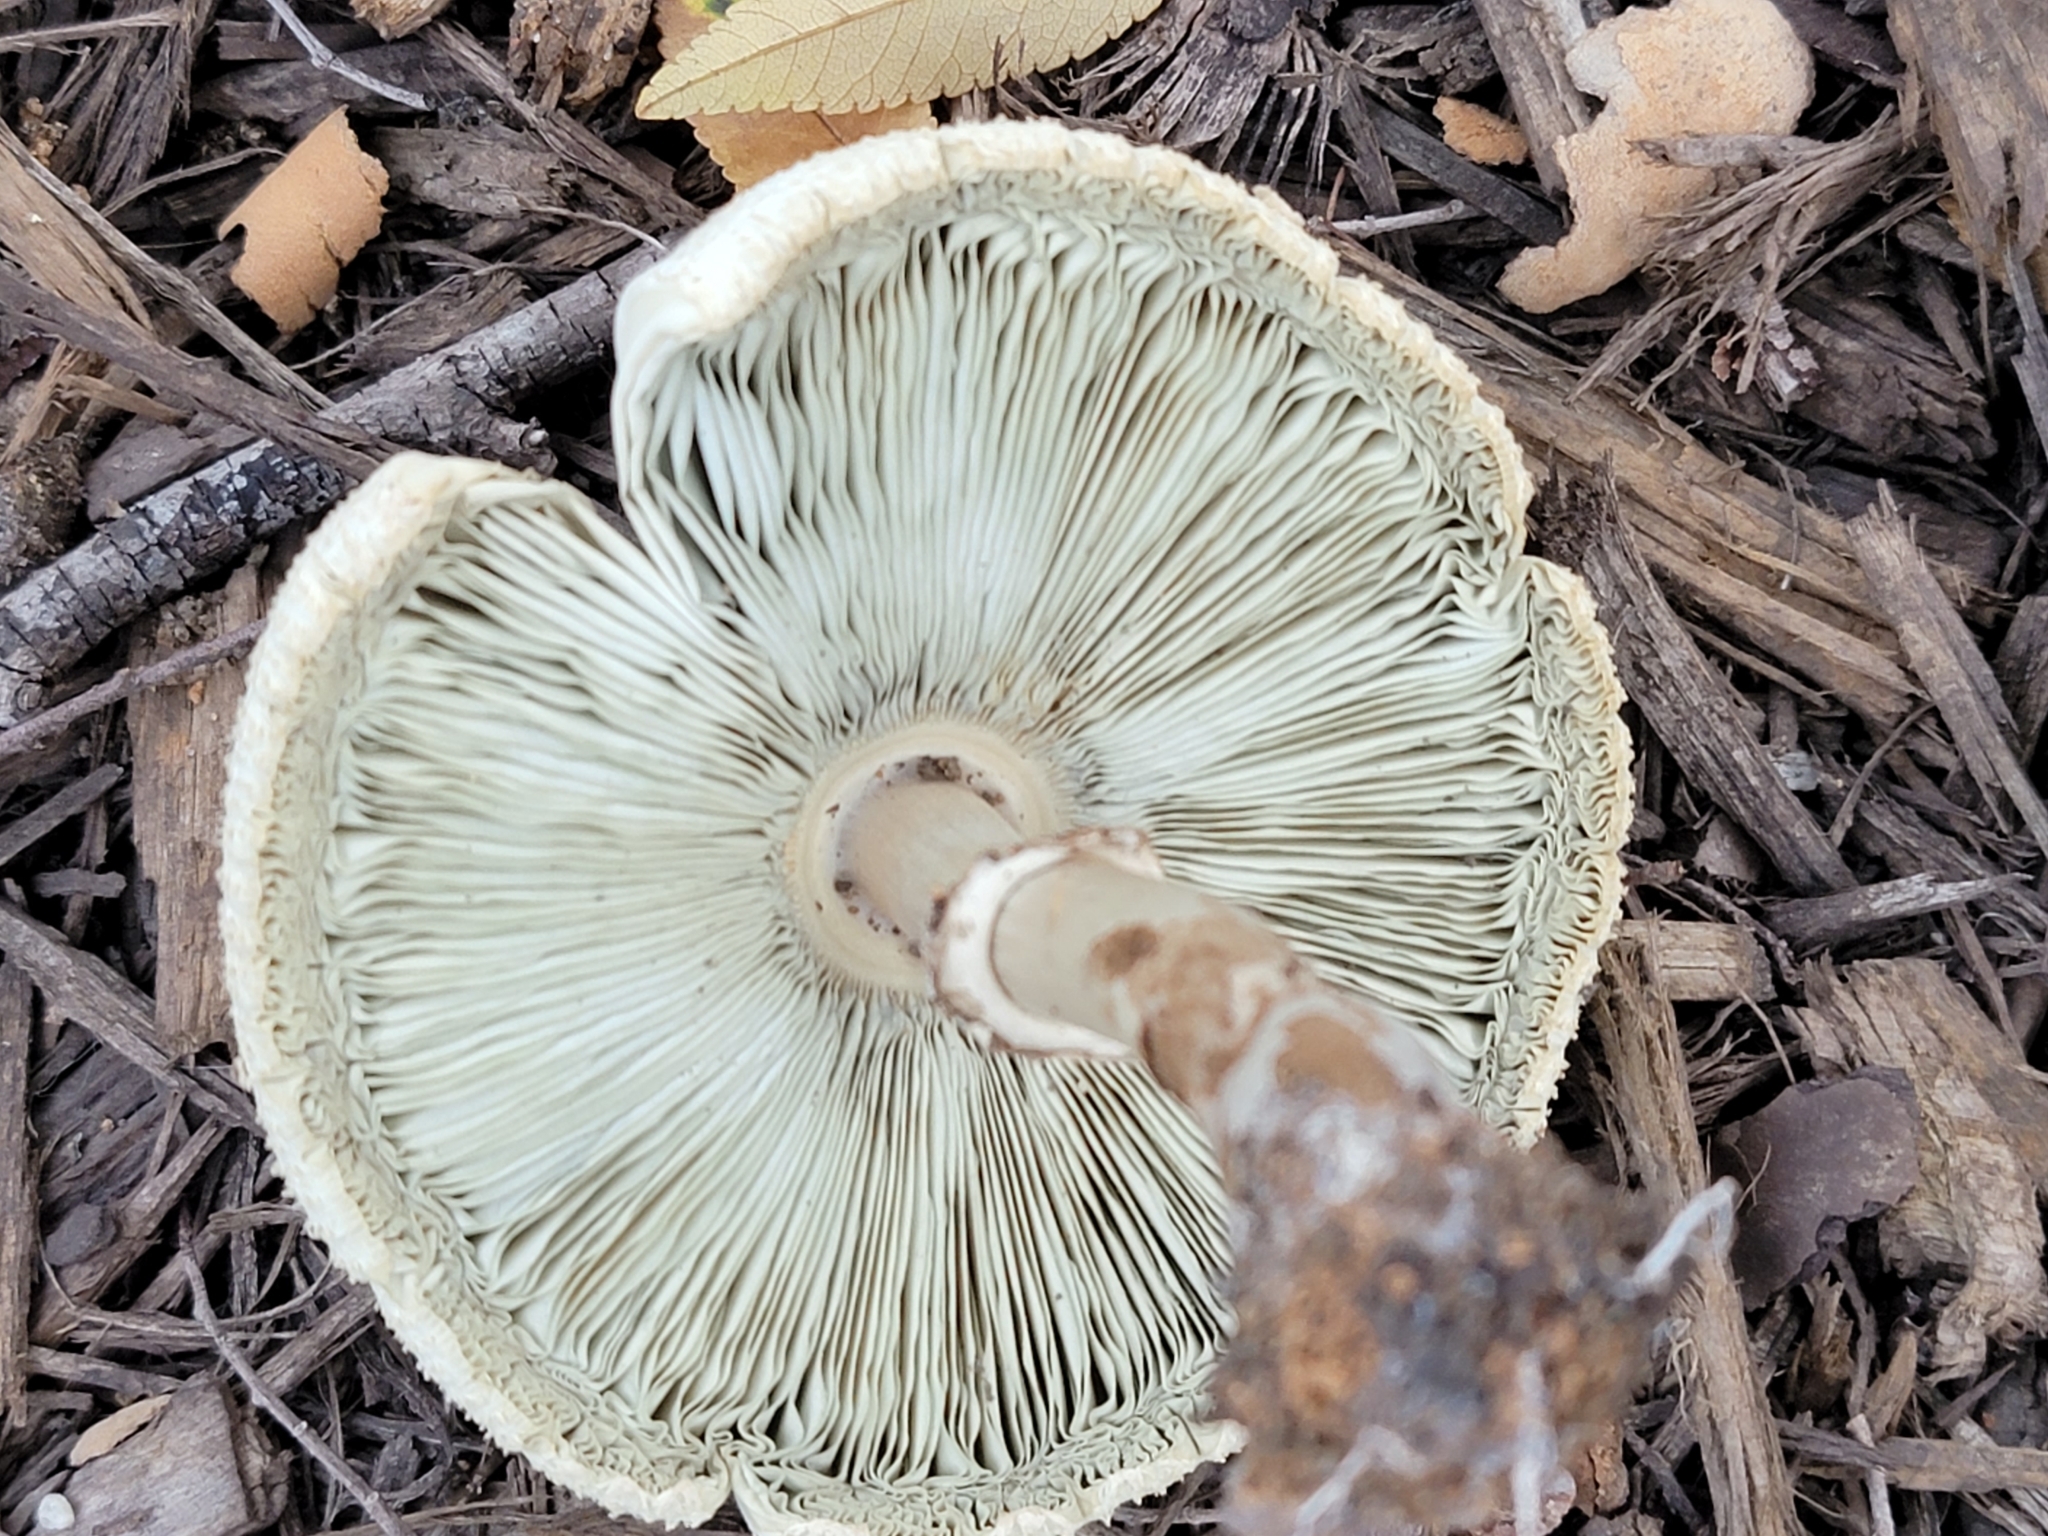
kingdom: Fungi
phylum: Basidiomycota
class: Agaricomycetes
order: Agaricales
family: Agaricaceae
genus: Chlorophyllum
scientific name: Chlorophyllum molybdites
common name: False parasol
